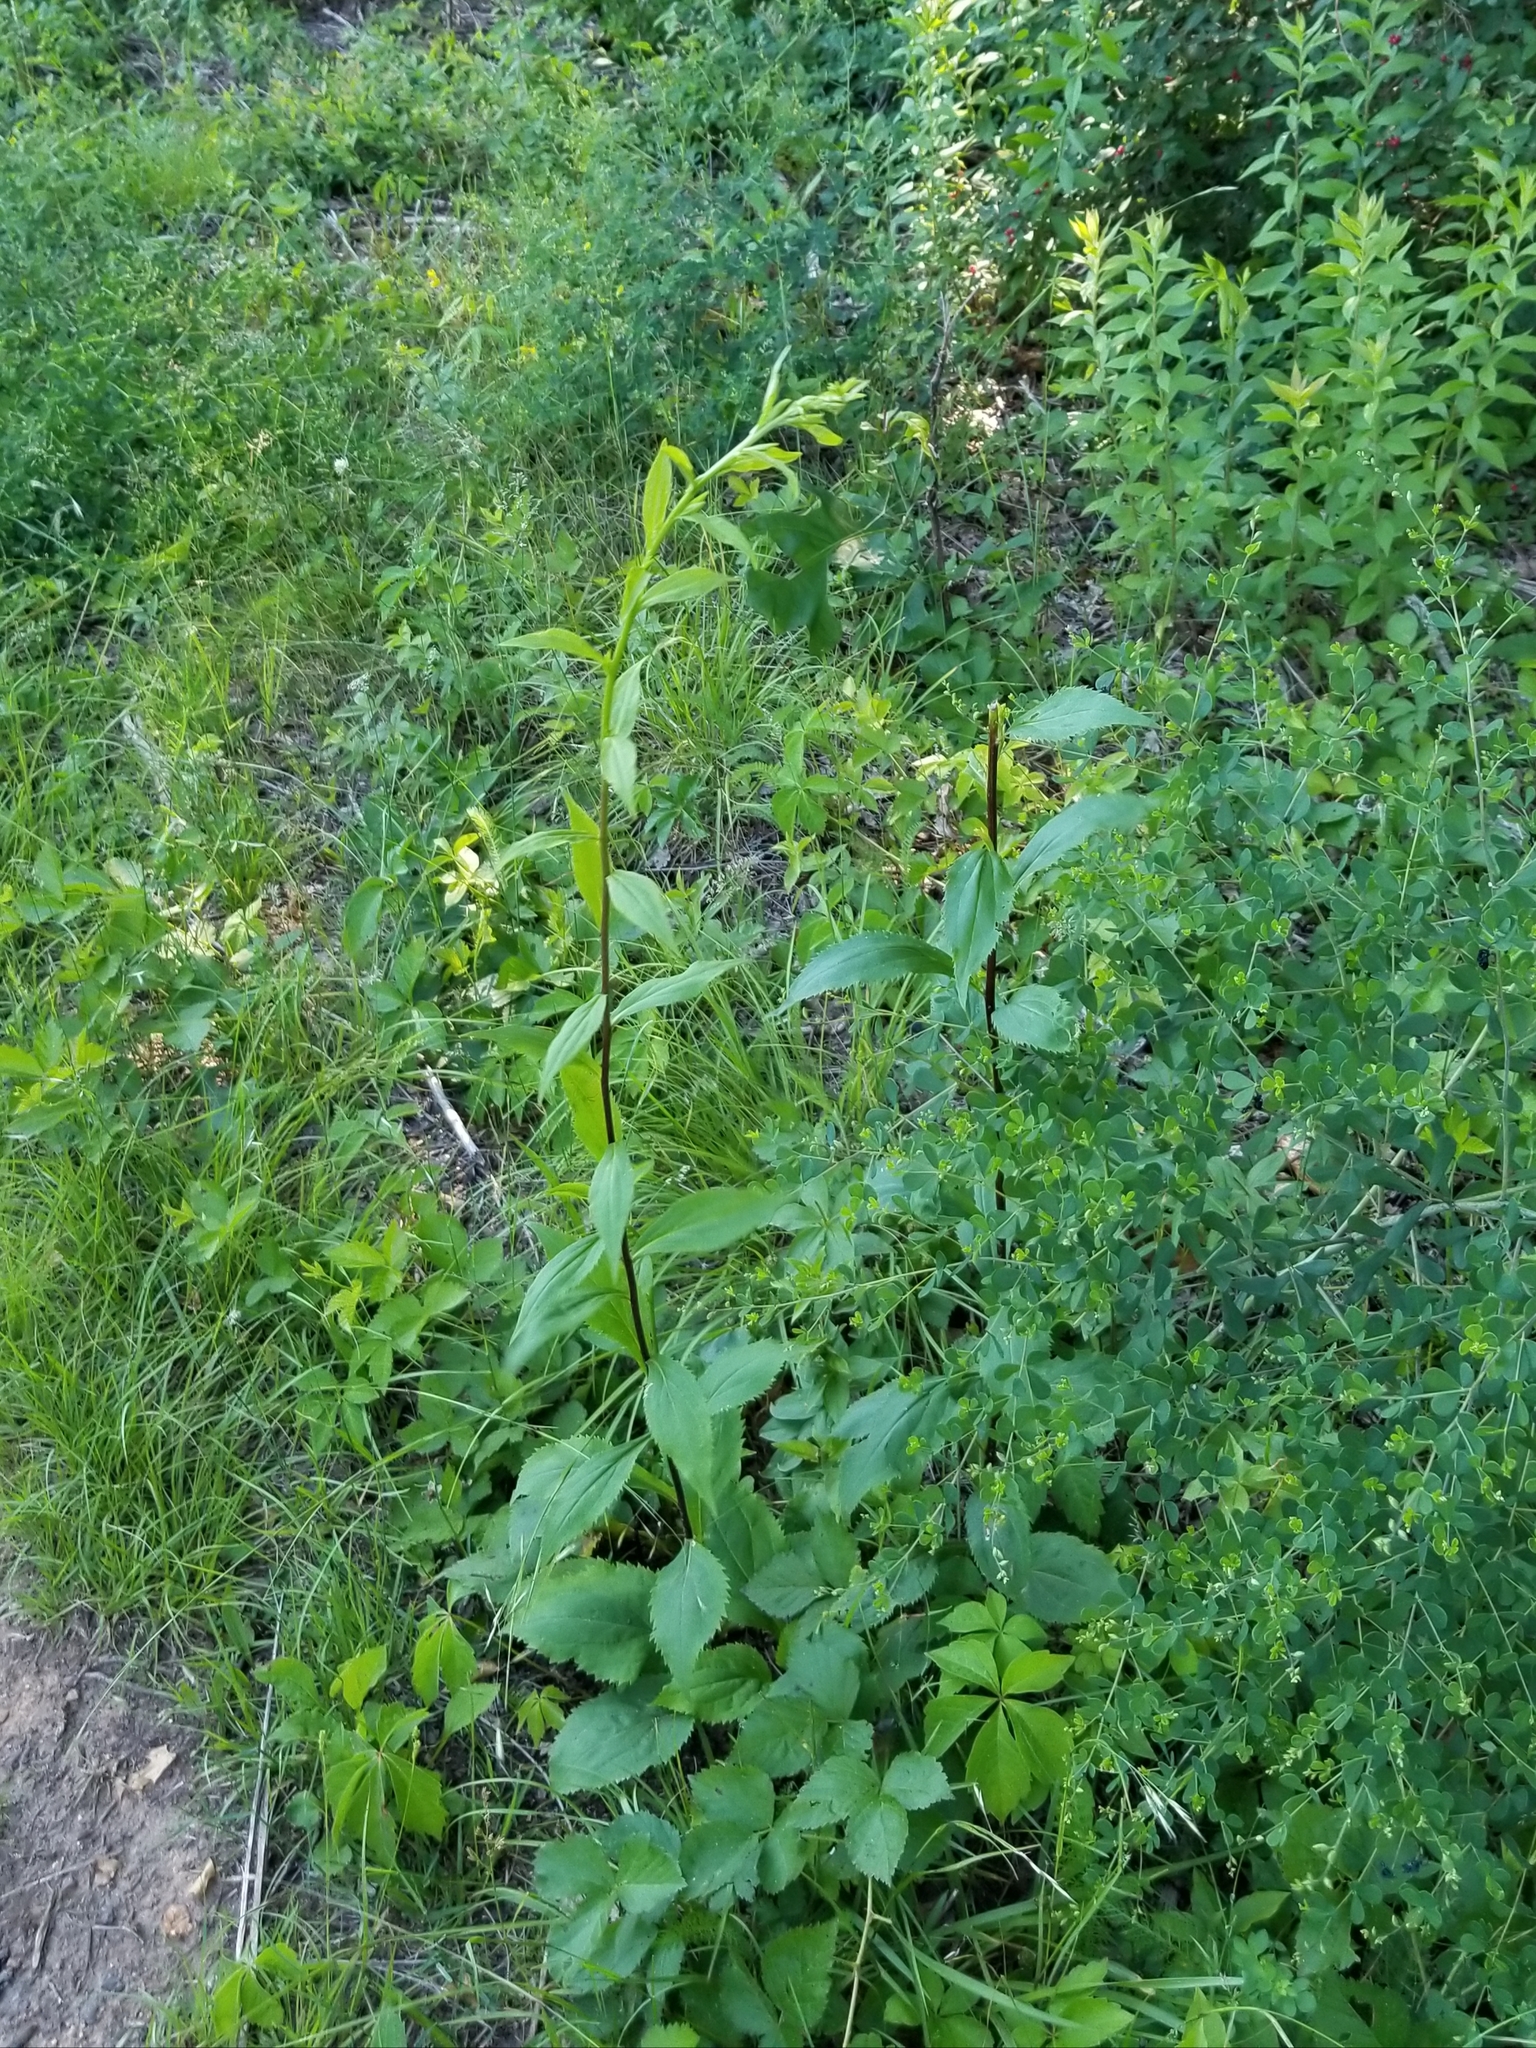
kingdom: Plantae
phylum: Tracheophyta
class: Magnoliopsida
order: Asterales
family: Asteraceae
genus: Solidago
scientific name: Solidago arguta
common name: Atlantic goldenrod
